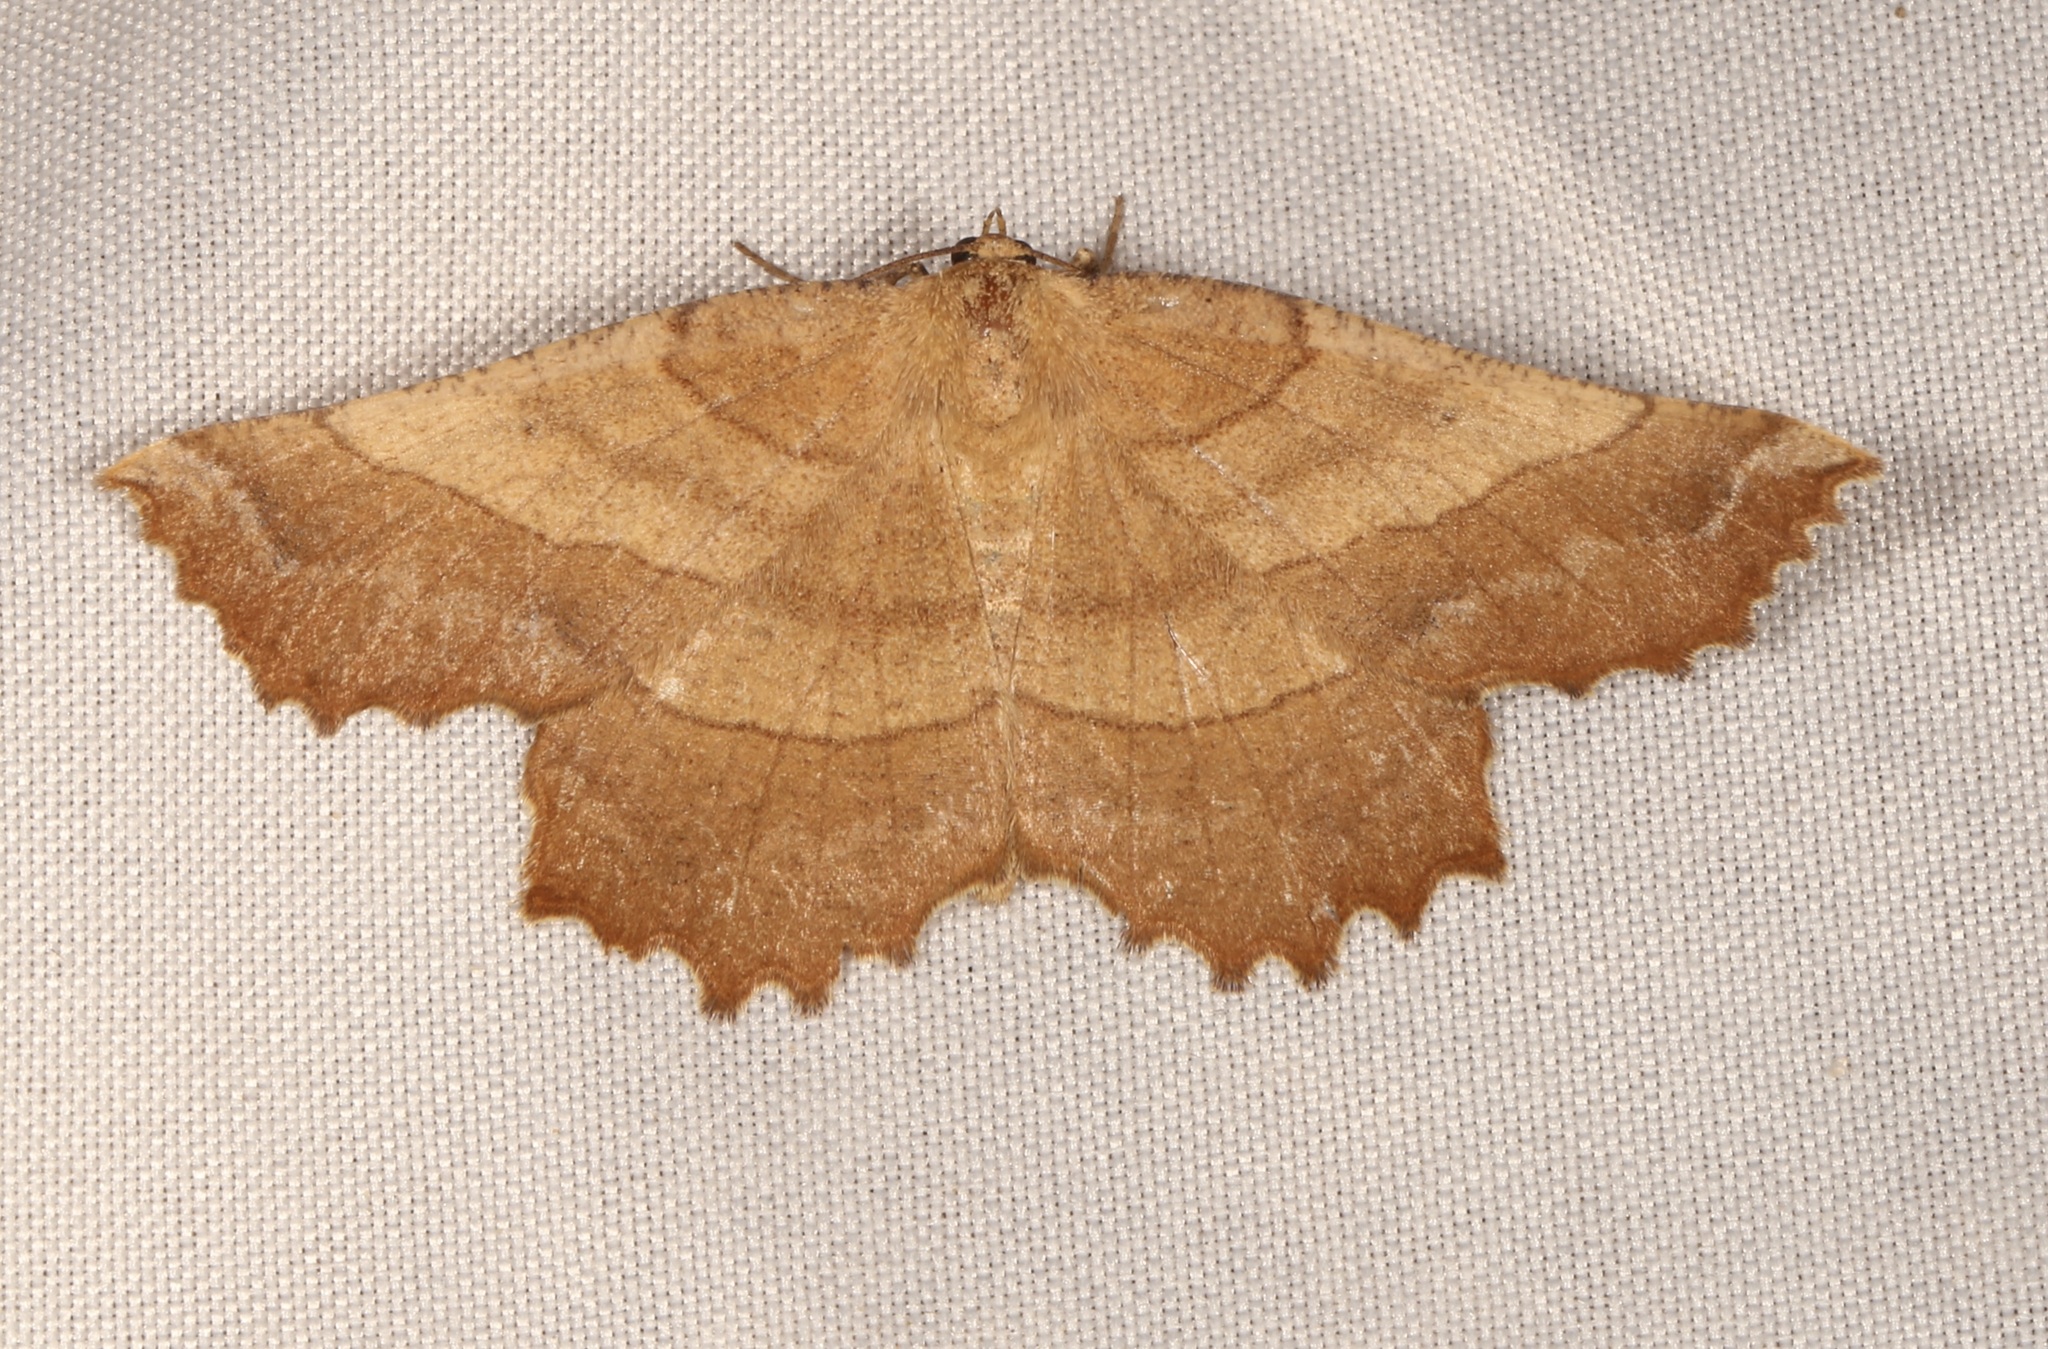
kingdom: Animalia
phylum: Arthropoda
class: Insecta
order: Lepidoptera
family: Geometridae
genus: Euchlaena
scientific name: Euchlaena mollisaria
